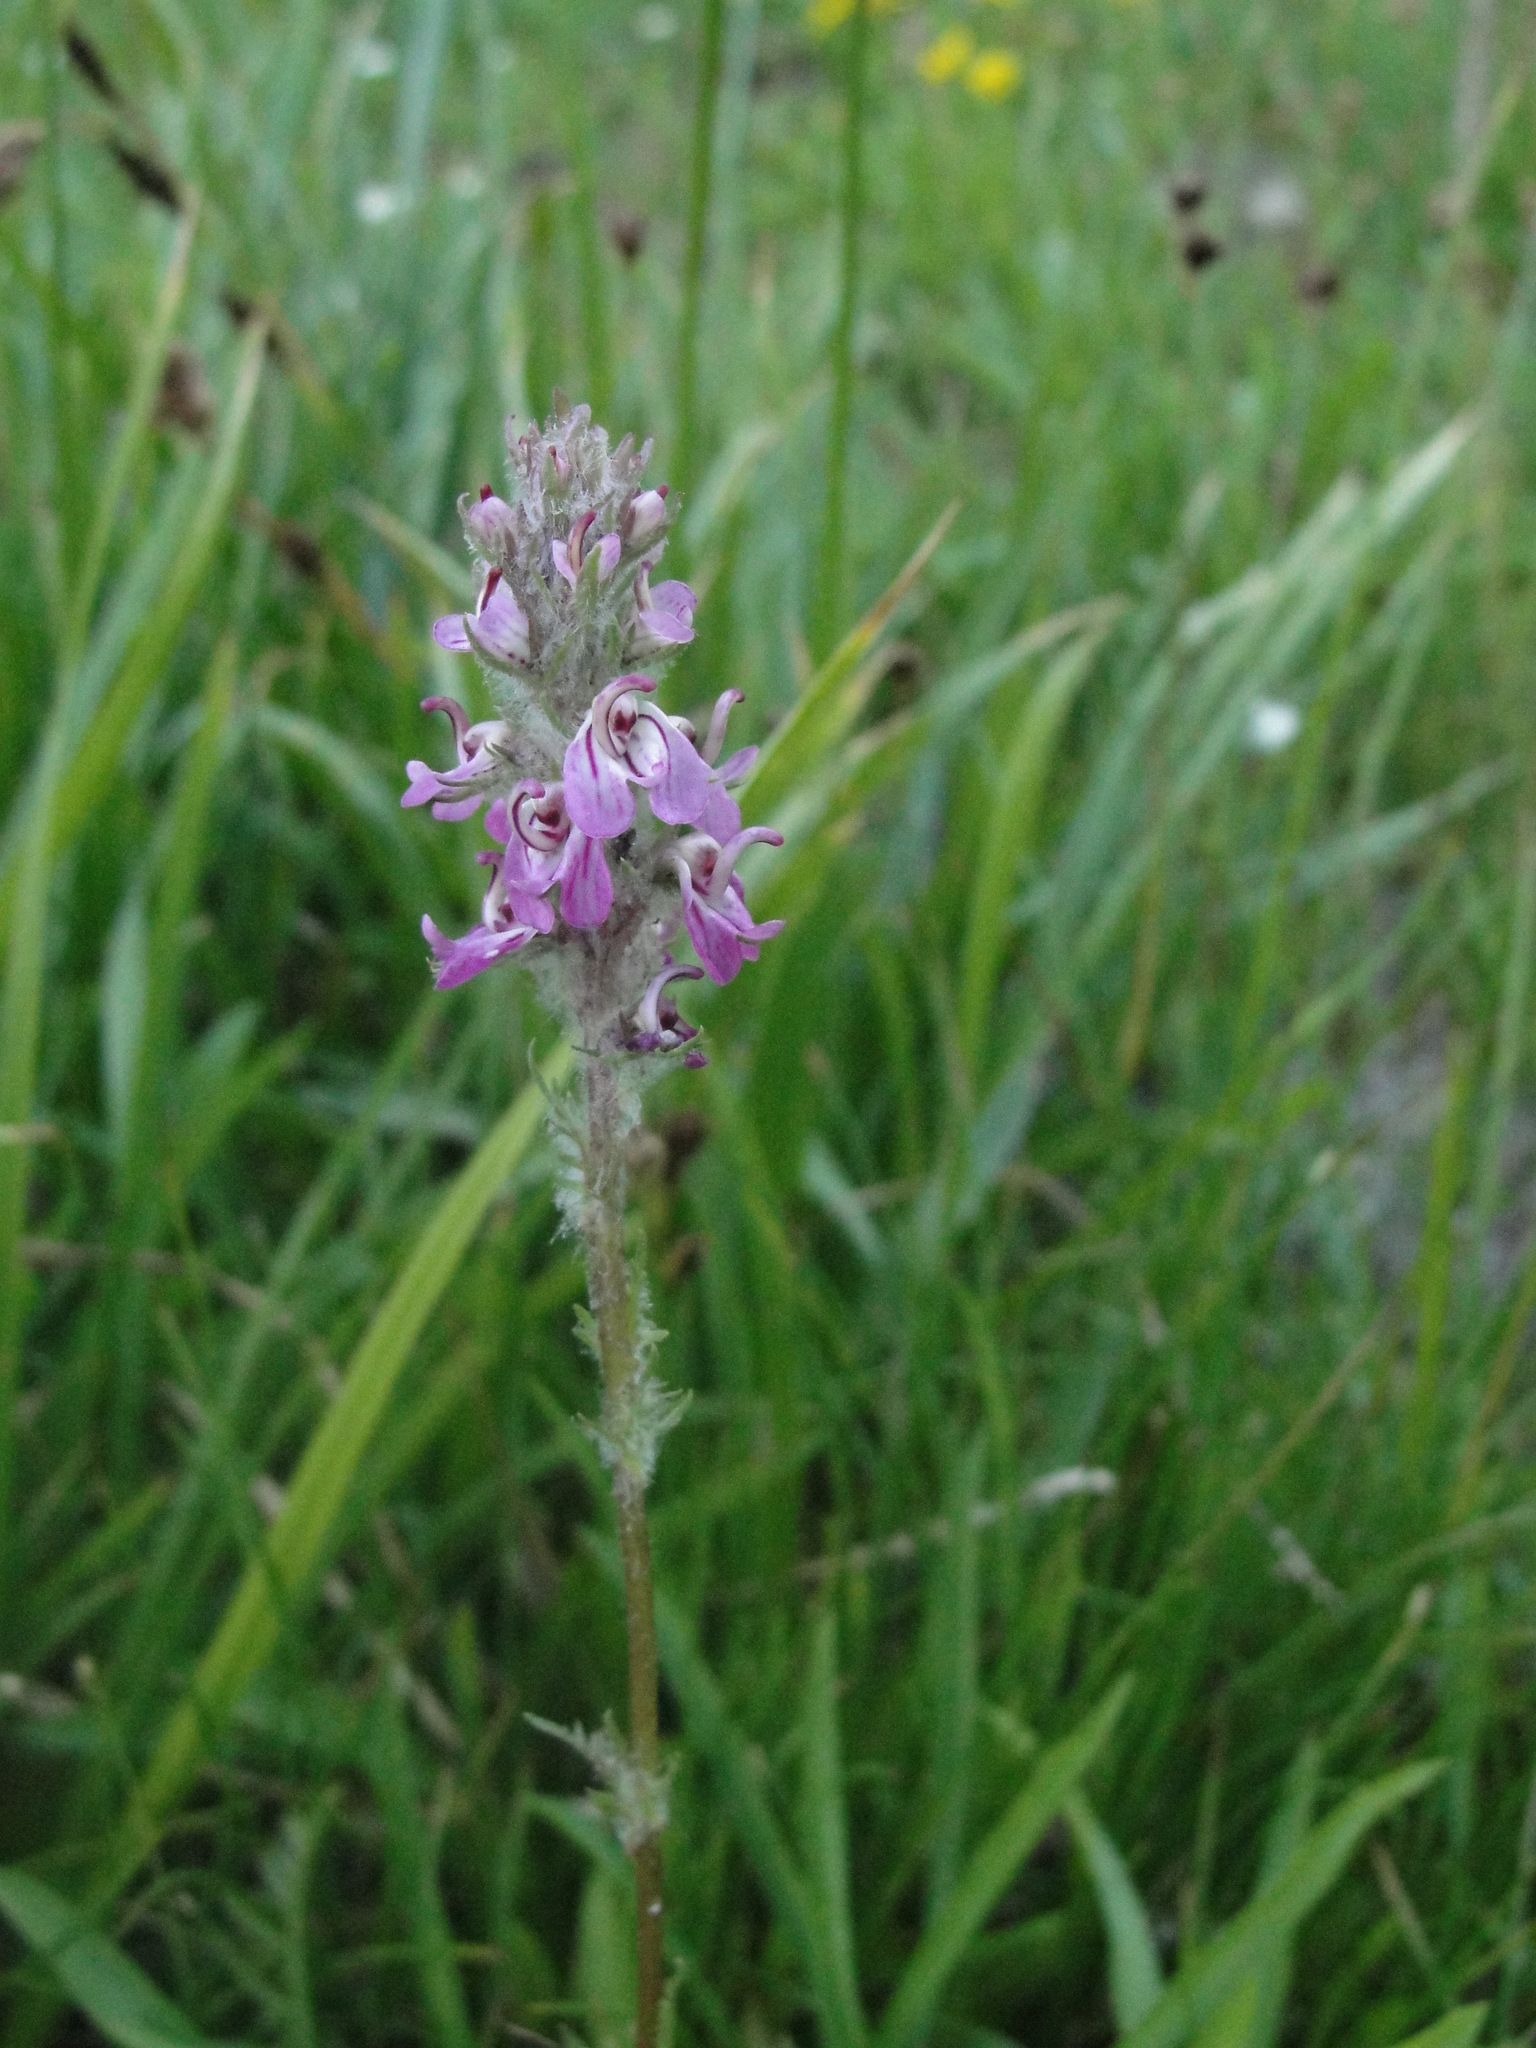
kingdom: Plantae
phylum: Tracheophyta
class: Magnoliopsida
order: Lamiales
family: Orobanchaceae
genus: Pedicularis
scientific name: Pedicularis attollens
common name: Slender pedicularis
